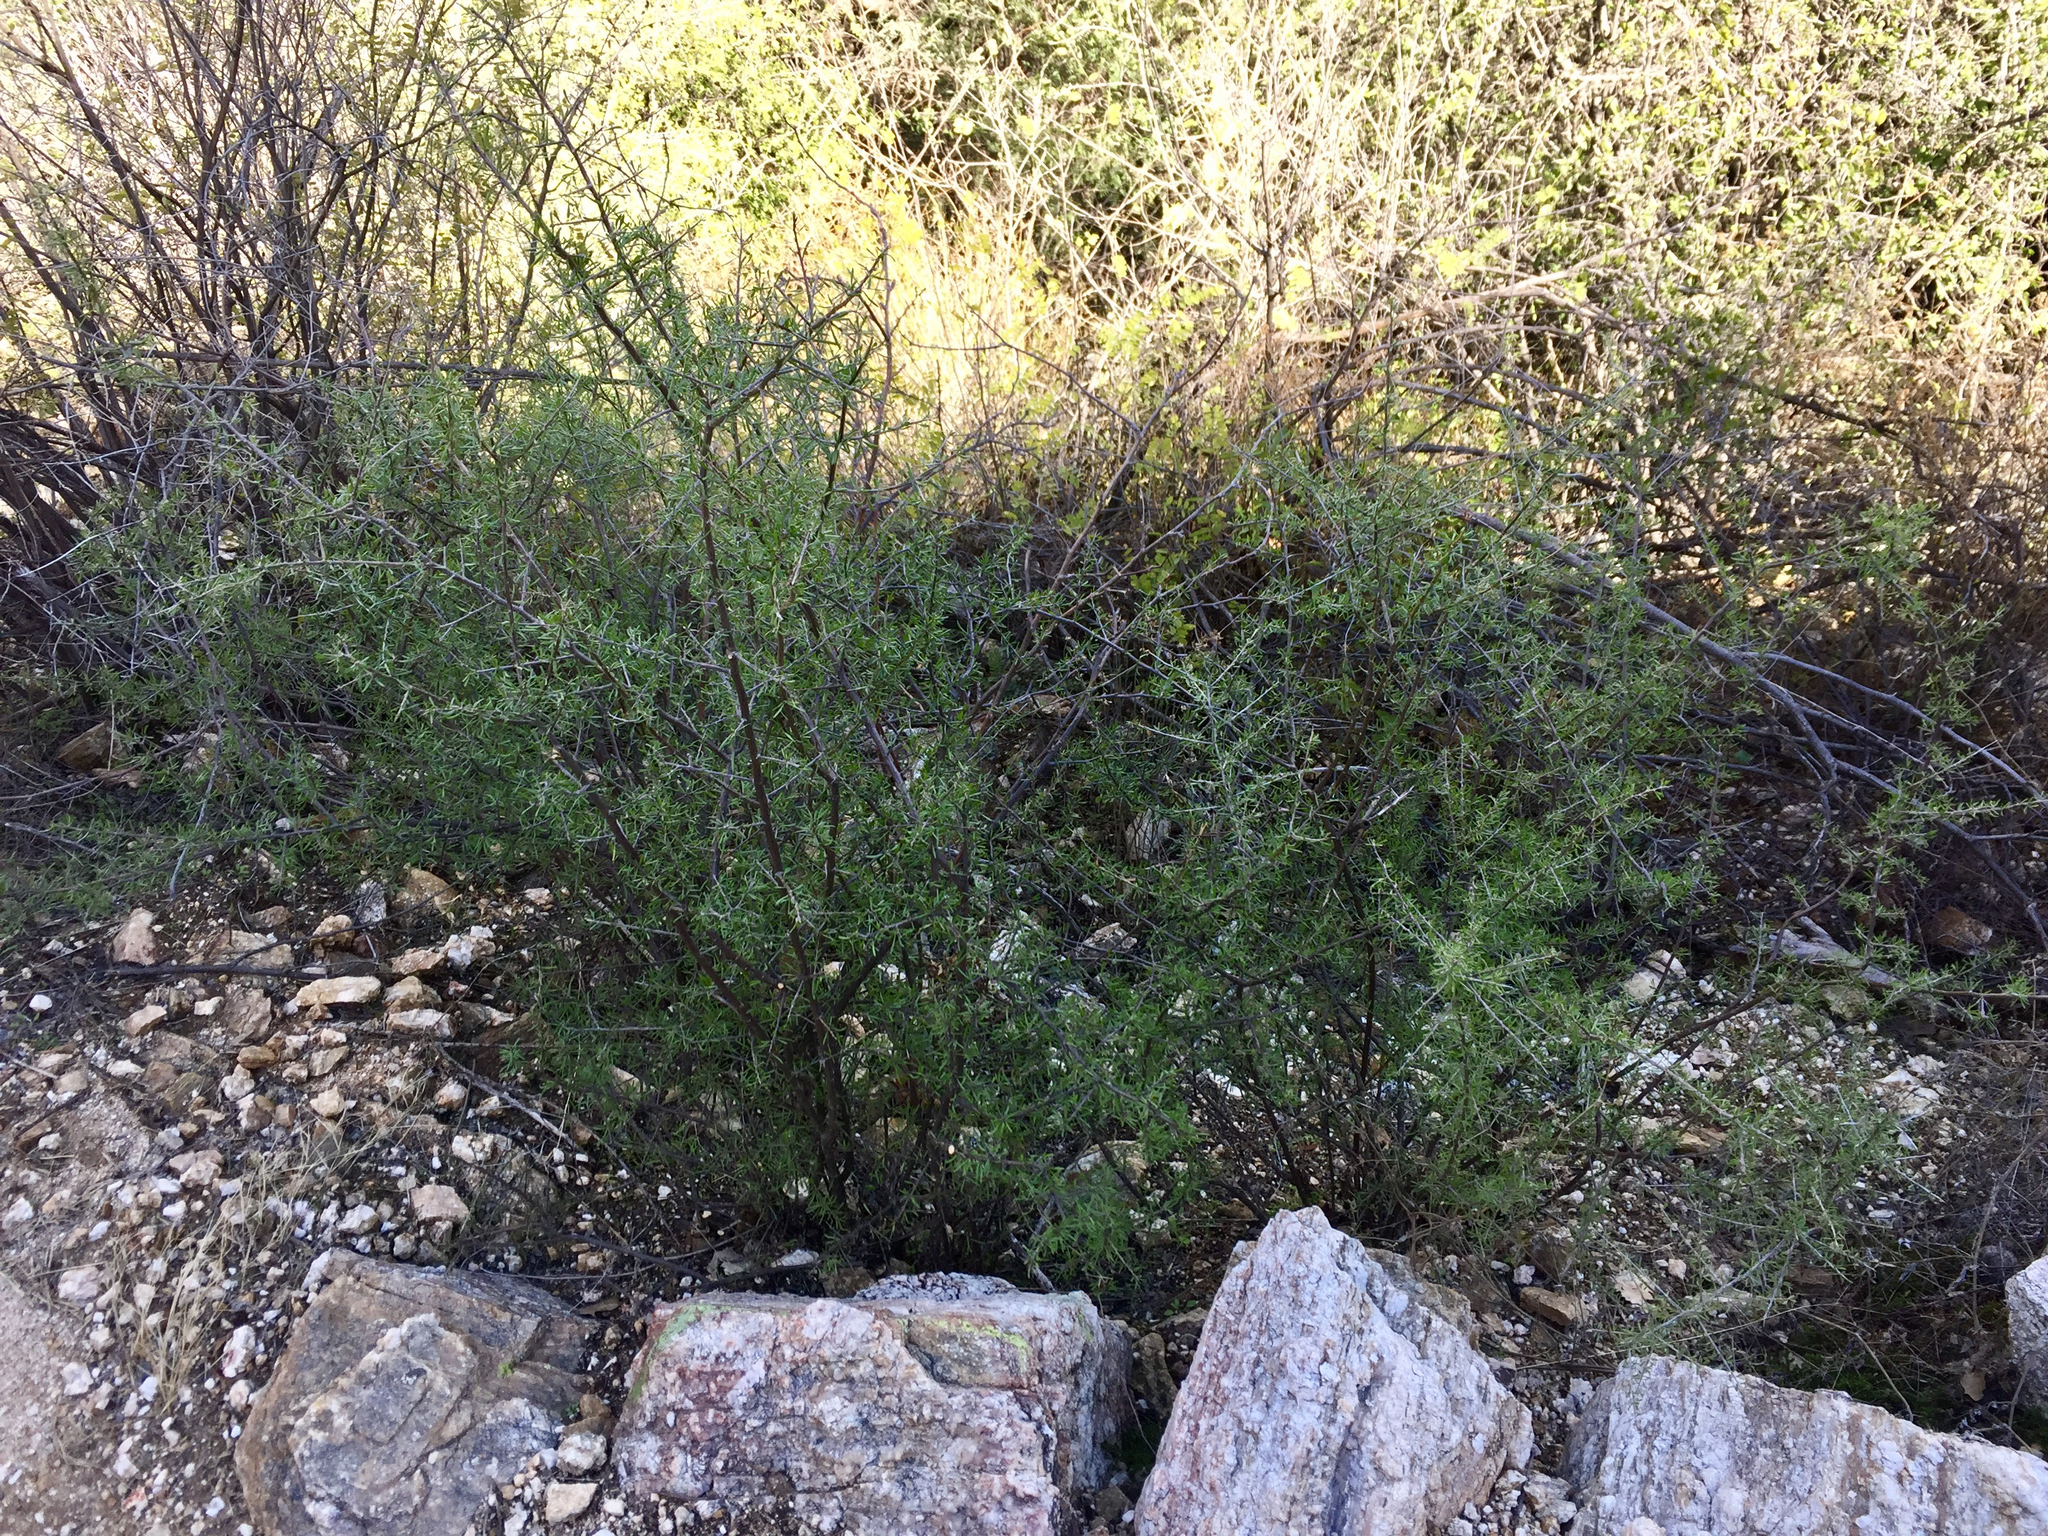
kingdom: Plantae
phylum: Tracheophyta
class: Magnoliopsida
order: Solanales
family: Solanaceae
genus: Lycium
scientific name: Lycium berlandieri
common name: Berlandier wolfberry
